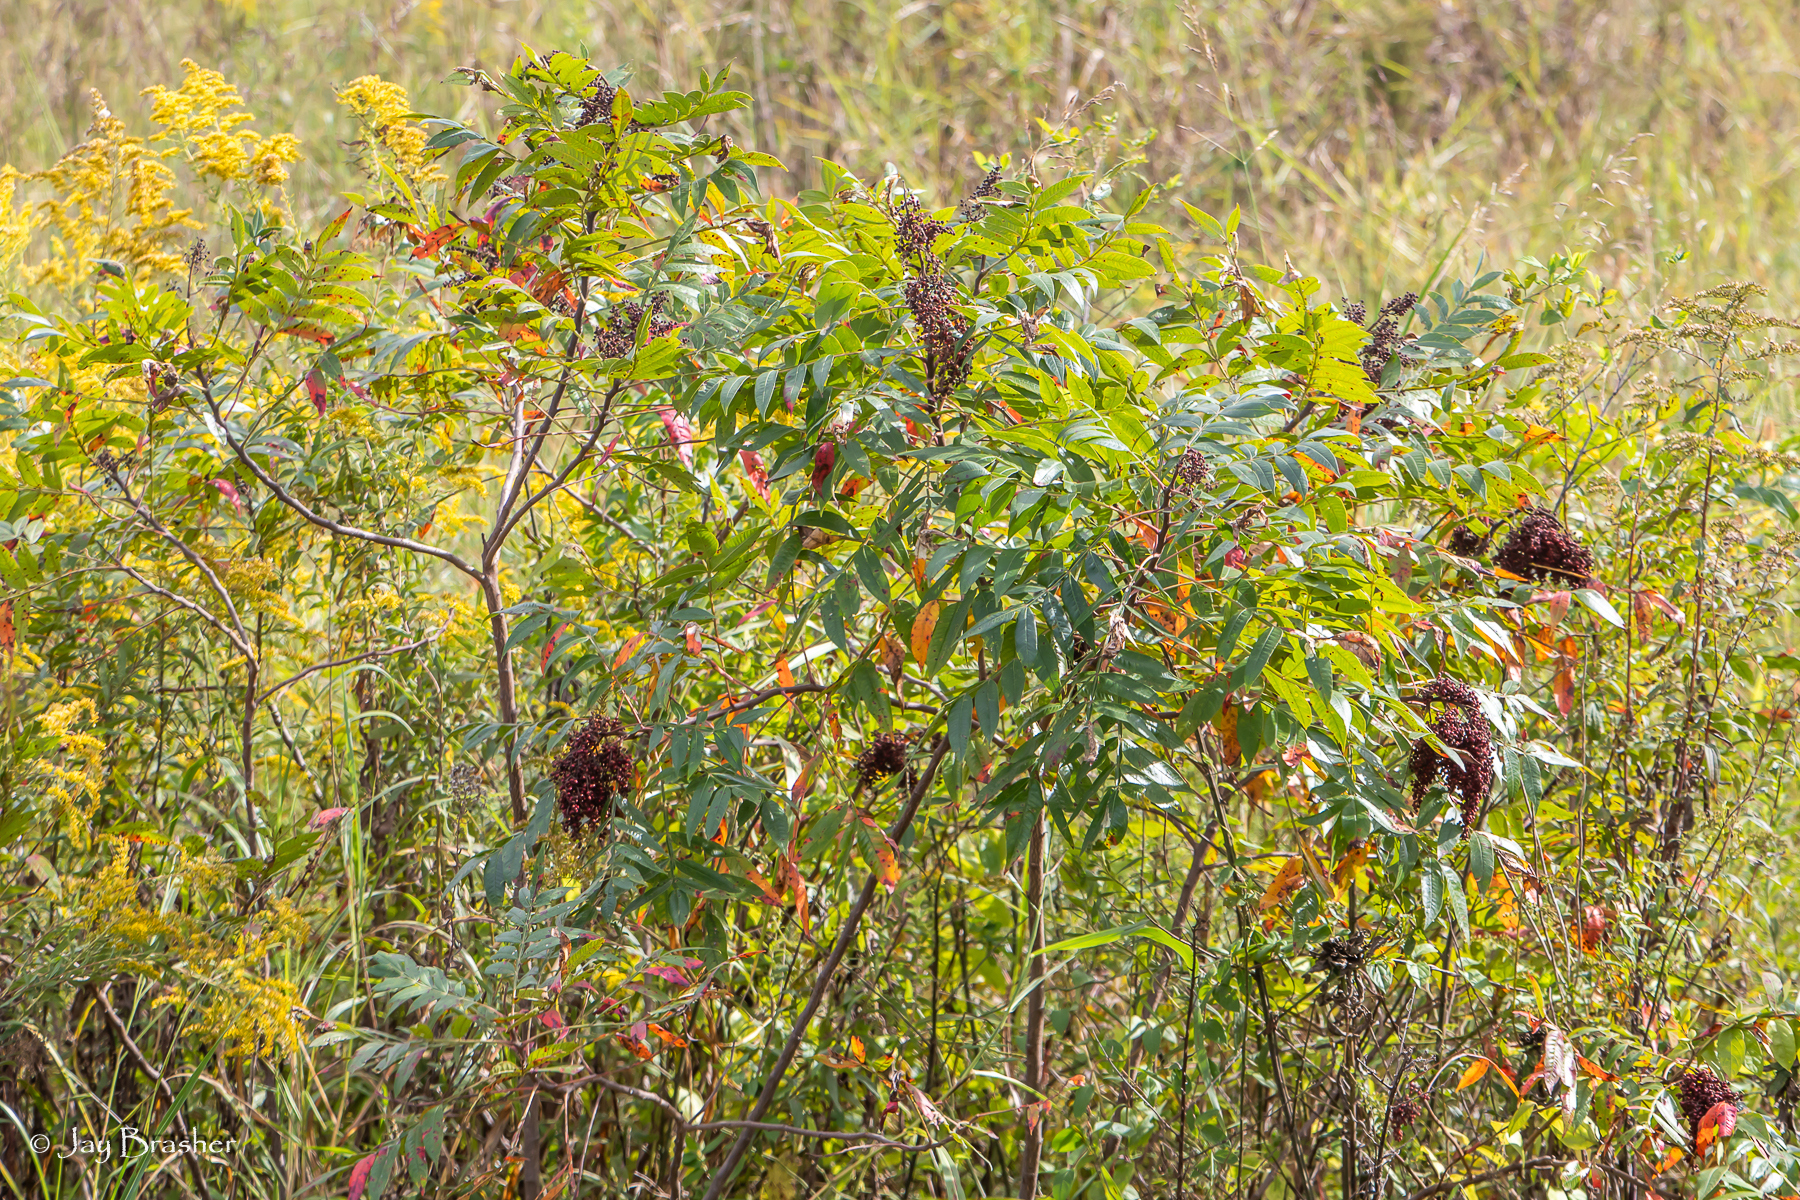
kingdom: Plantae
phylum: Tracheophyta
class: Magnoliopsida
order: Sapindales
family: Anacardiaceae
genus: Rhus
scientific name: Rhus copallina
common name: Shining sumac
